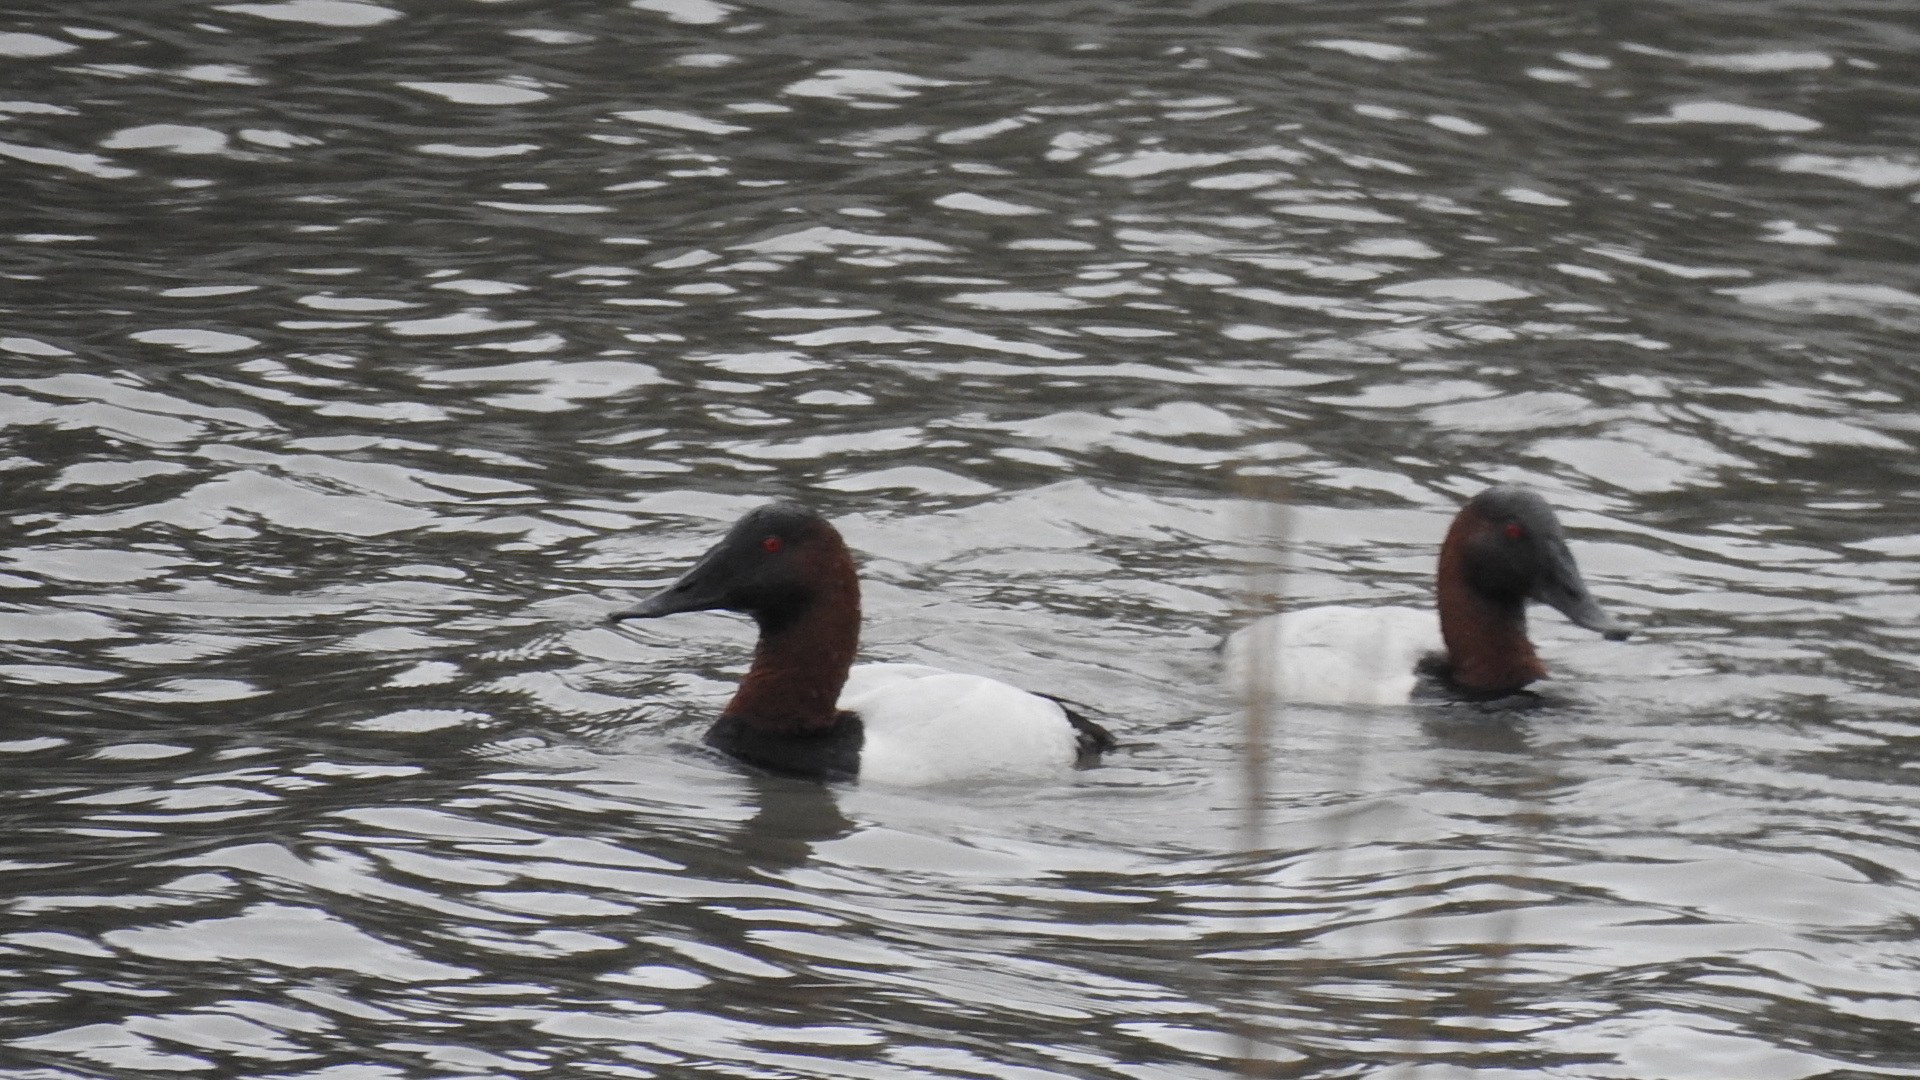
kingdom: Animalia
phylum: Chordata
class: Aves
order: Anseriformes
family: Anatidae
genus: Aythya
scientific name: Aythya valisineria
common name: Canvasback
